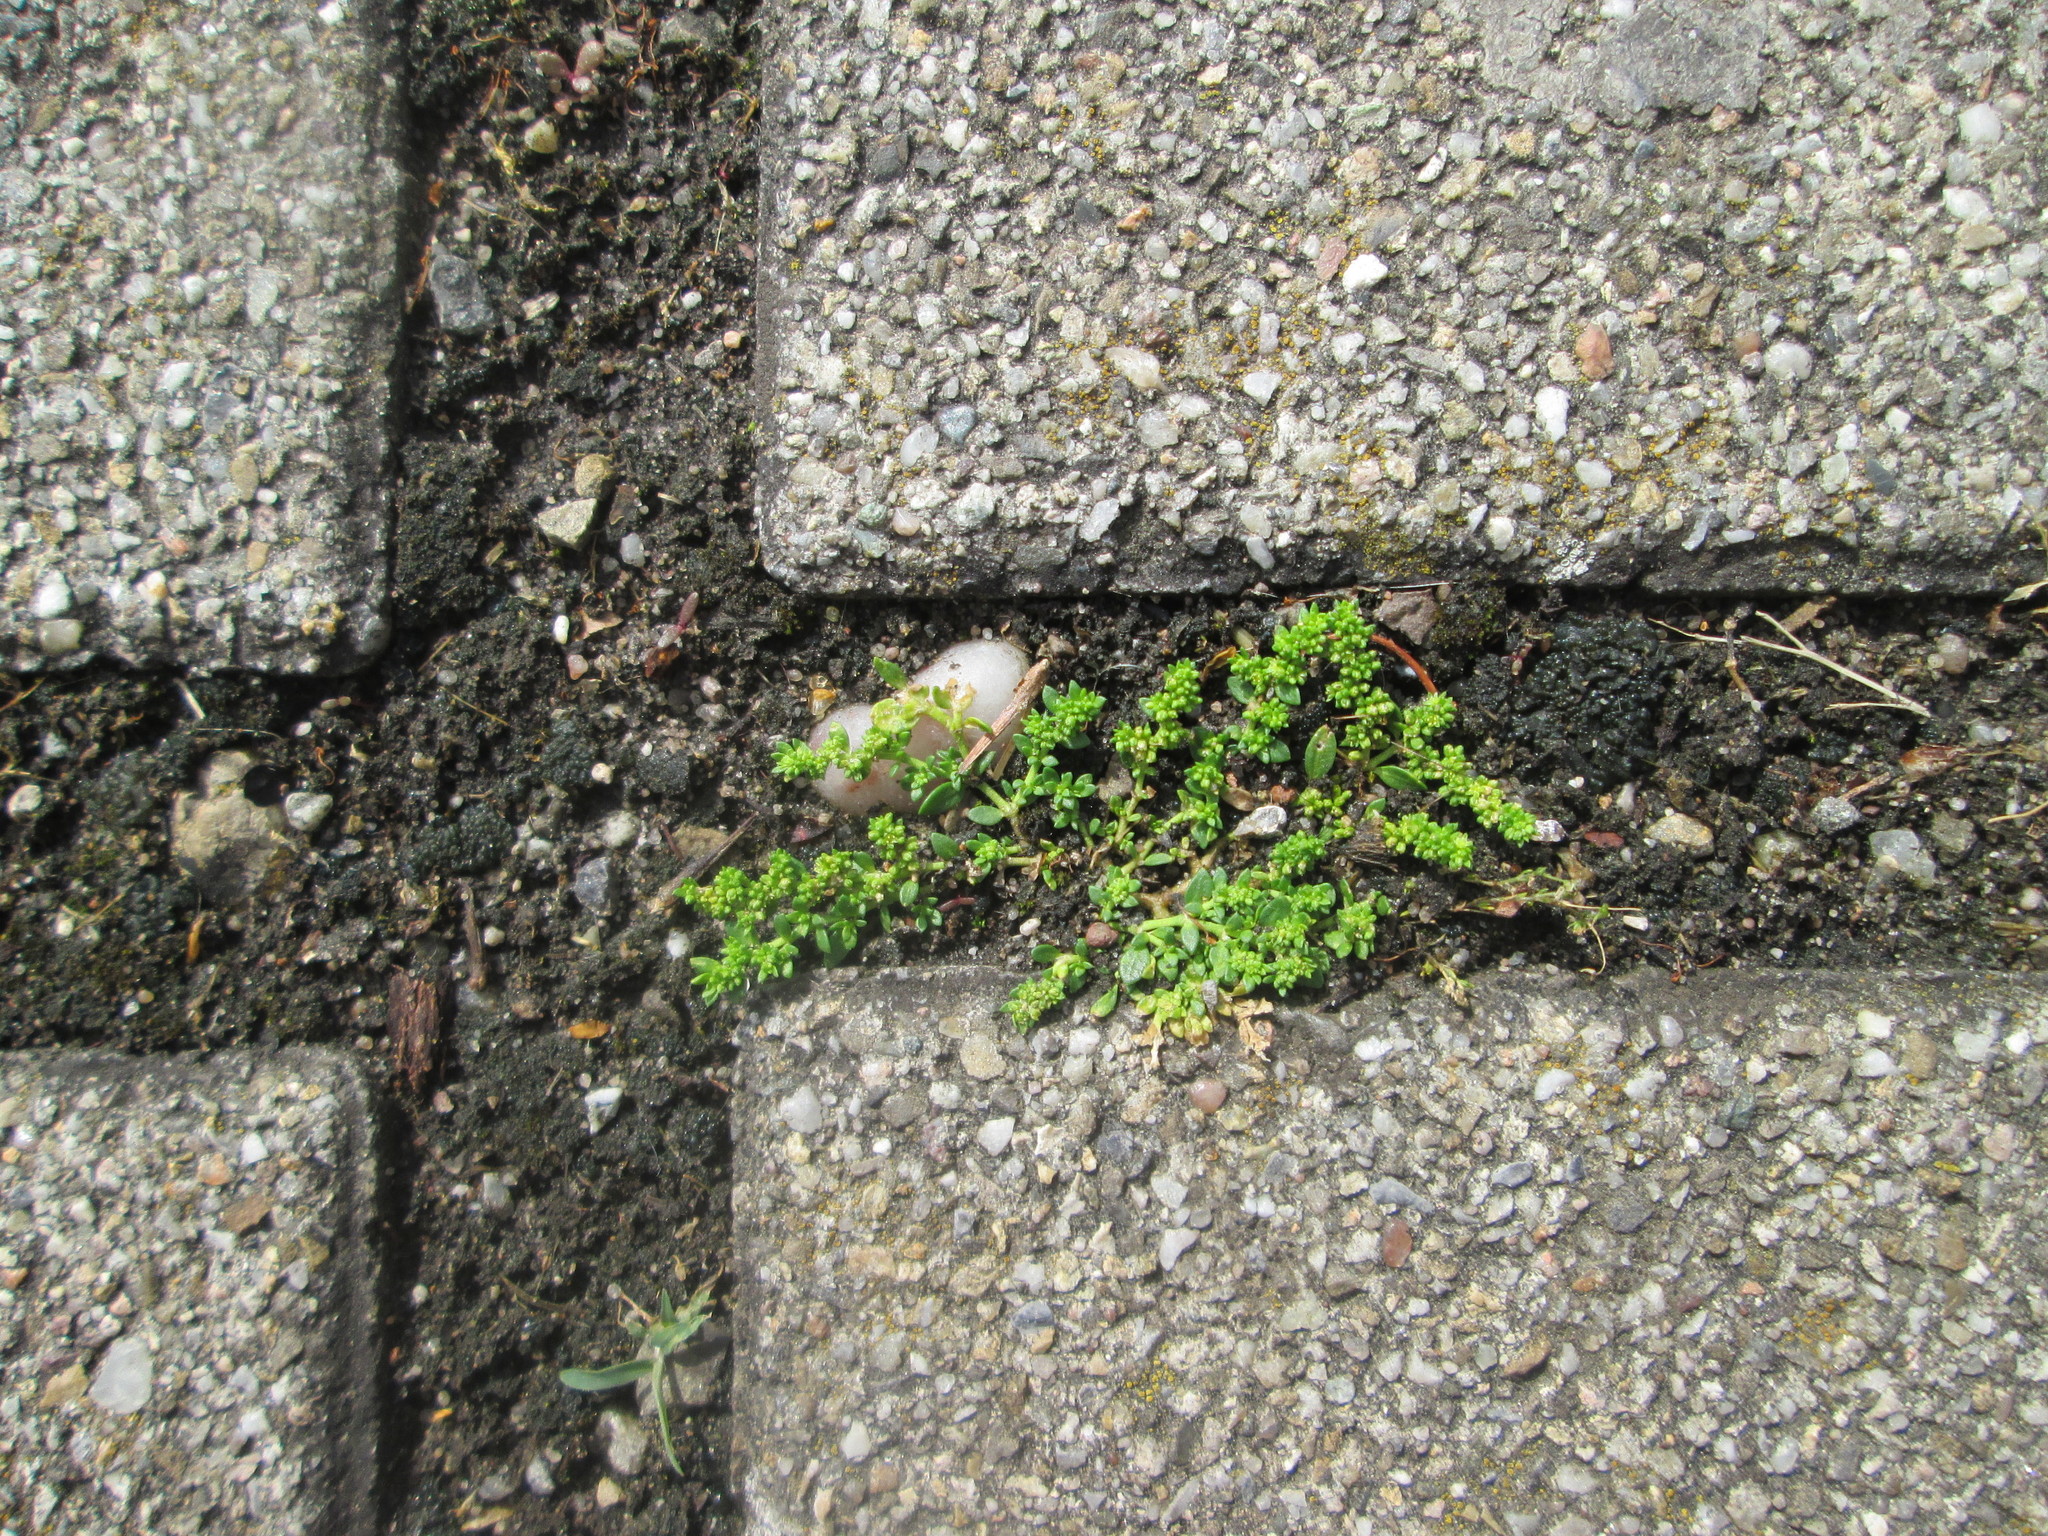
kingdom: Plantae
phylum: Tracheophyta
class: Magnoliopsida
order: Caryophyllales
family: Caryophyllaceae
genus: Herniaria
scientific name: Herniaria glabra
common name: Smooth rupturewort
